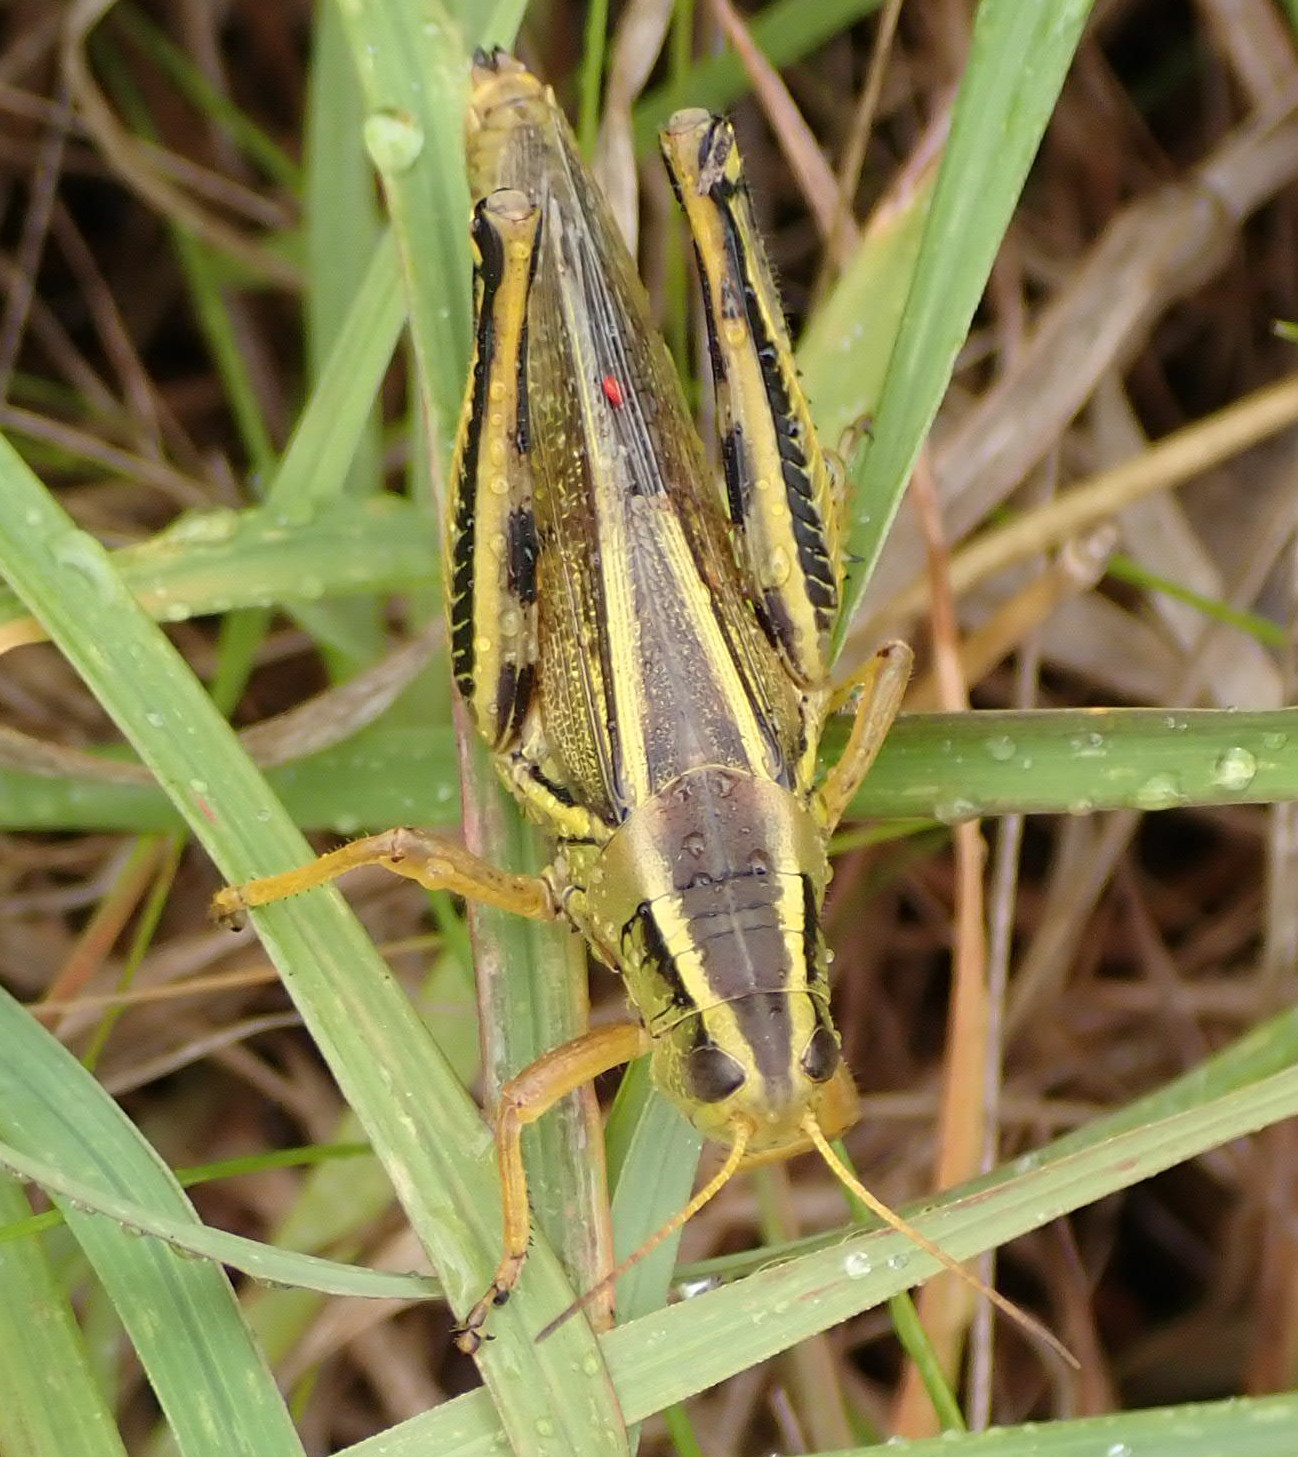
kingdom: Animalia
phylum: Arthropoda
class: Insecta
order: Orthoptera
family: Acrididae
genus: Melanoplus
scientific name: Melanoplus bivittatus
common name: Two-striped grasshopper
